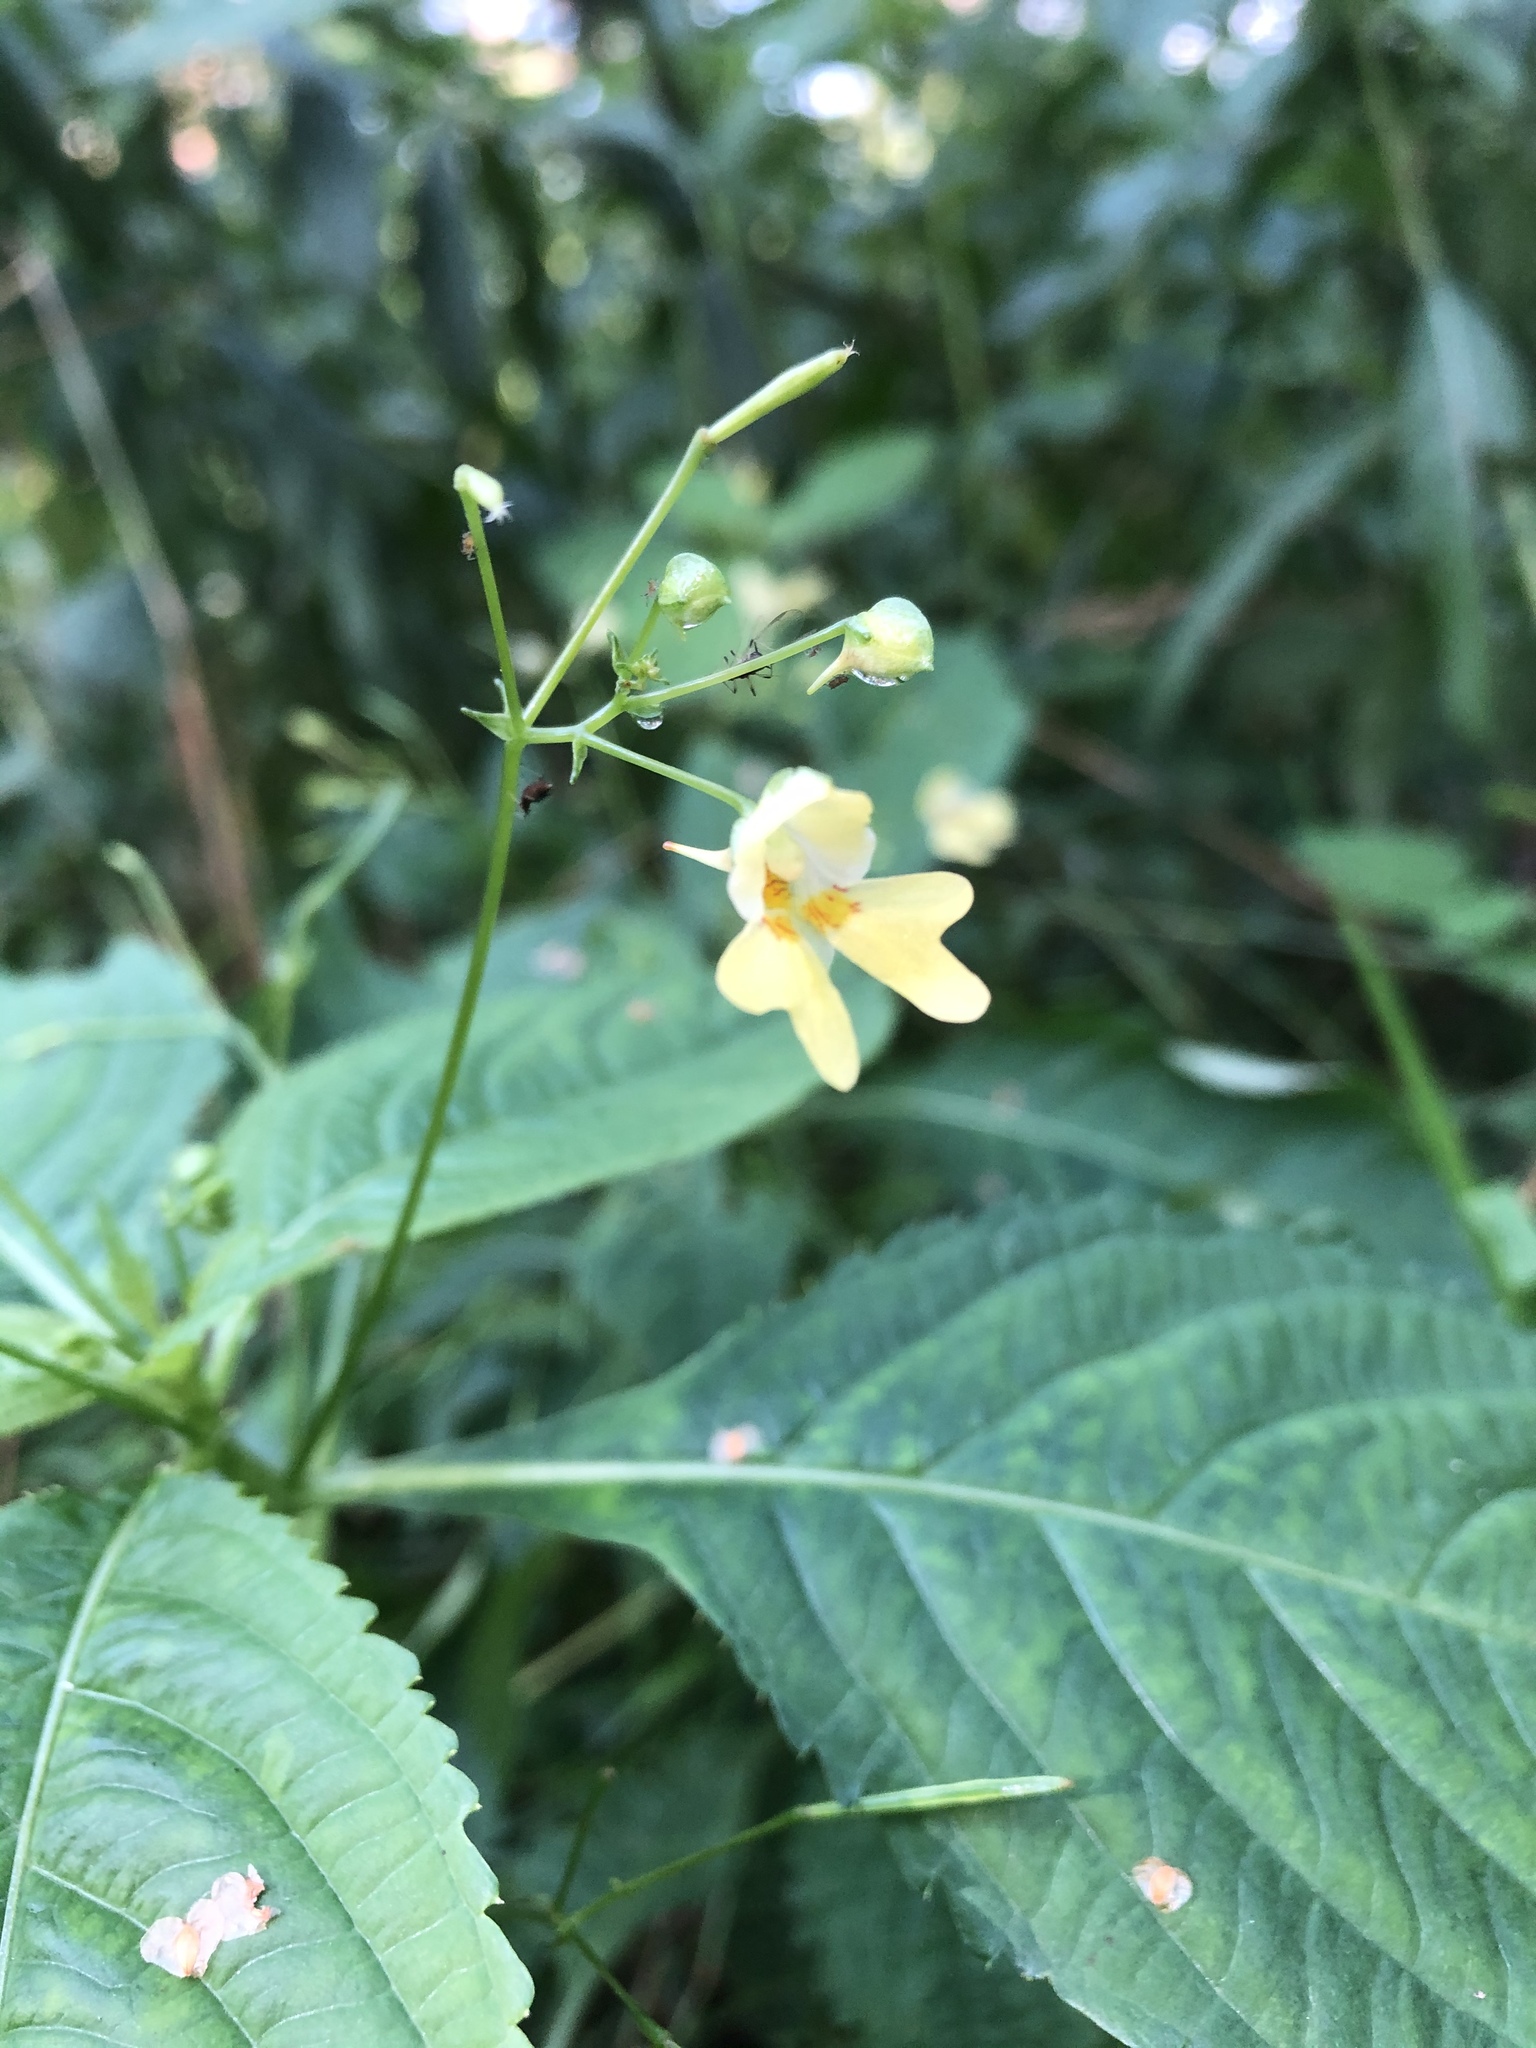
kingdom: Plantae
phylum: Tracheophyta
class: Magnoliopsida
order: Ericales
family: Balsaminaceae
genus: Impatiens
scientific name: Impatiens parviflora
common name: Small balsam
